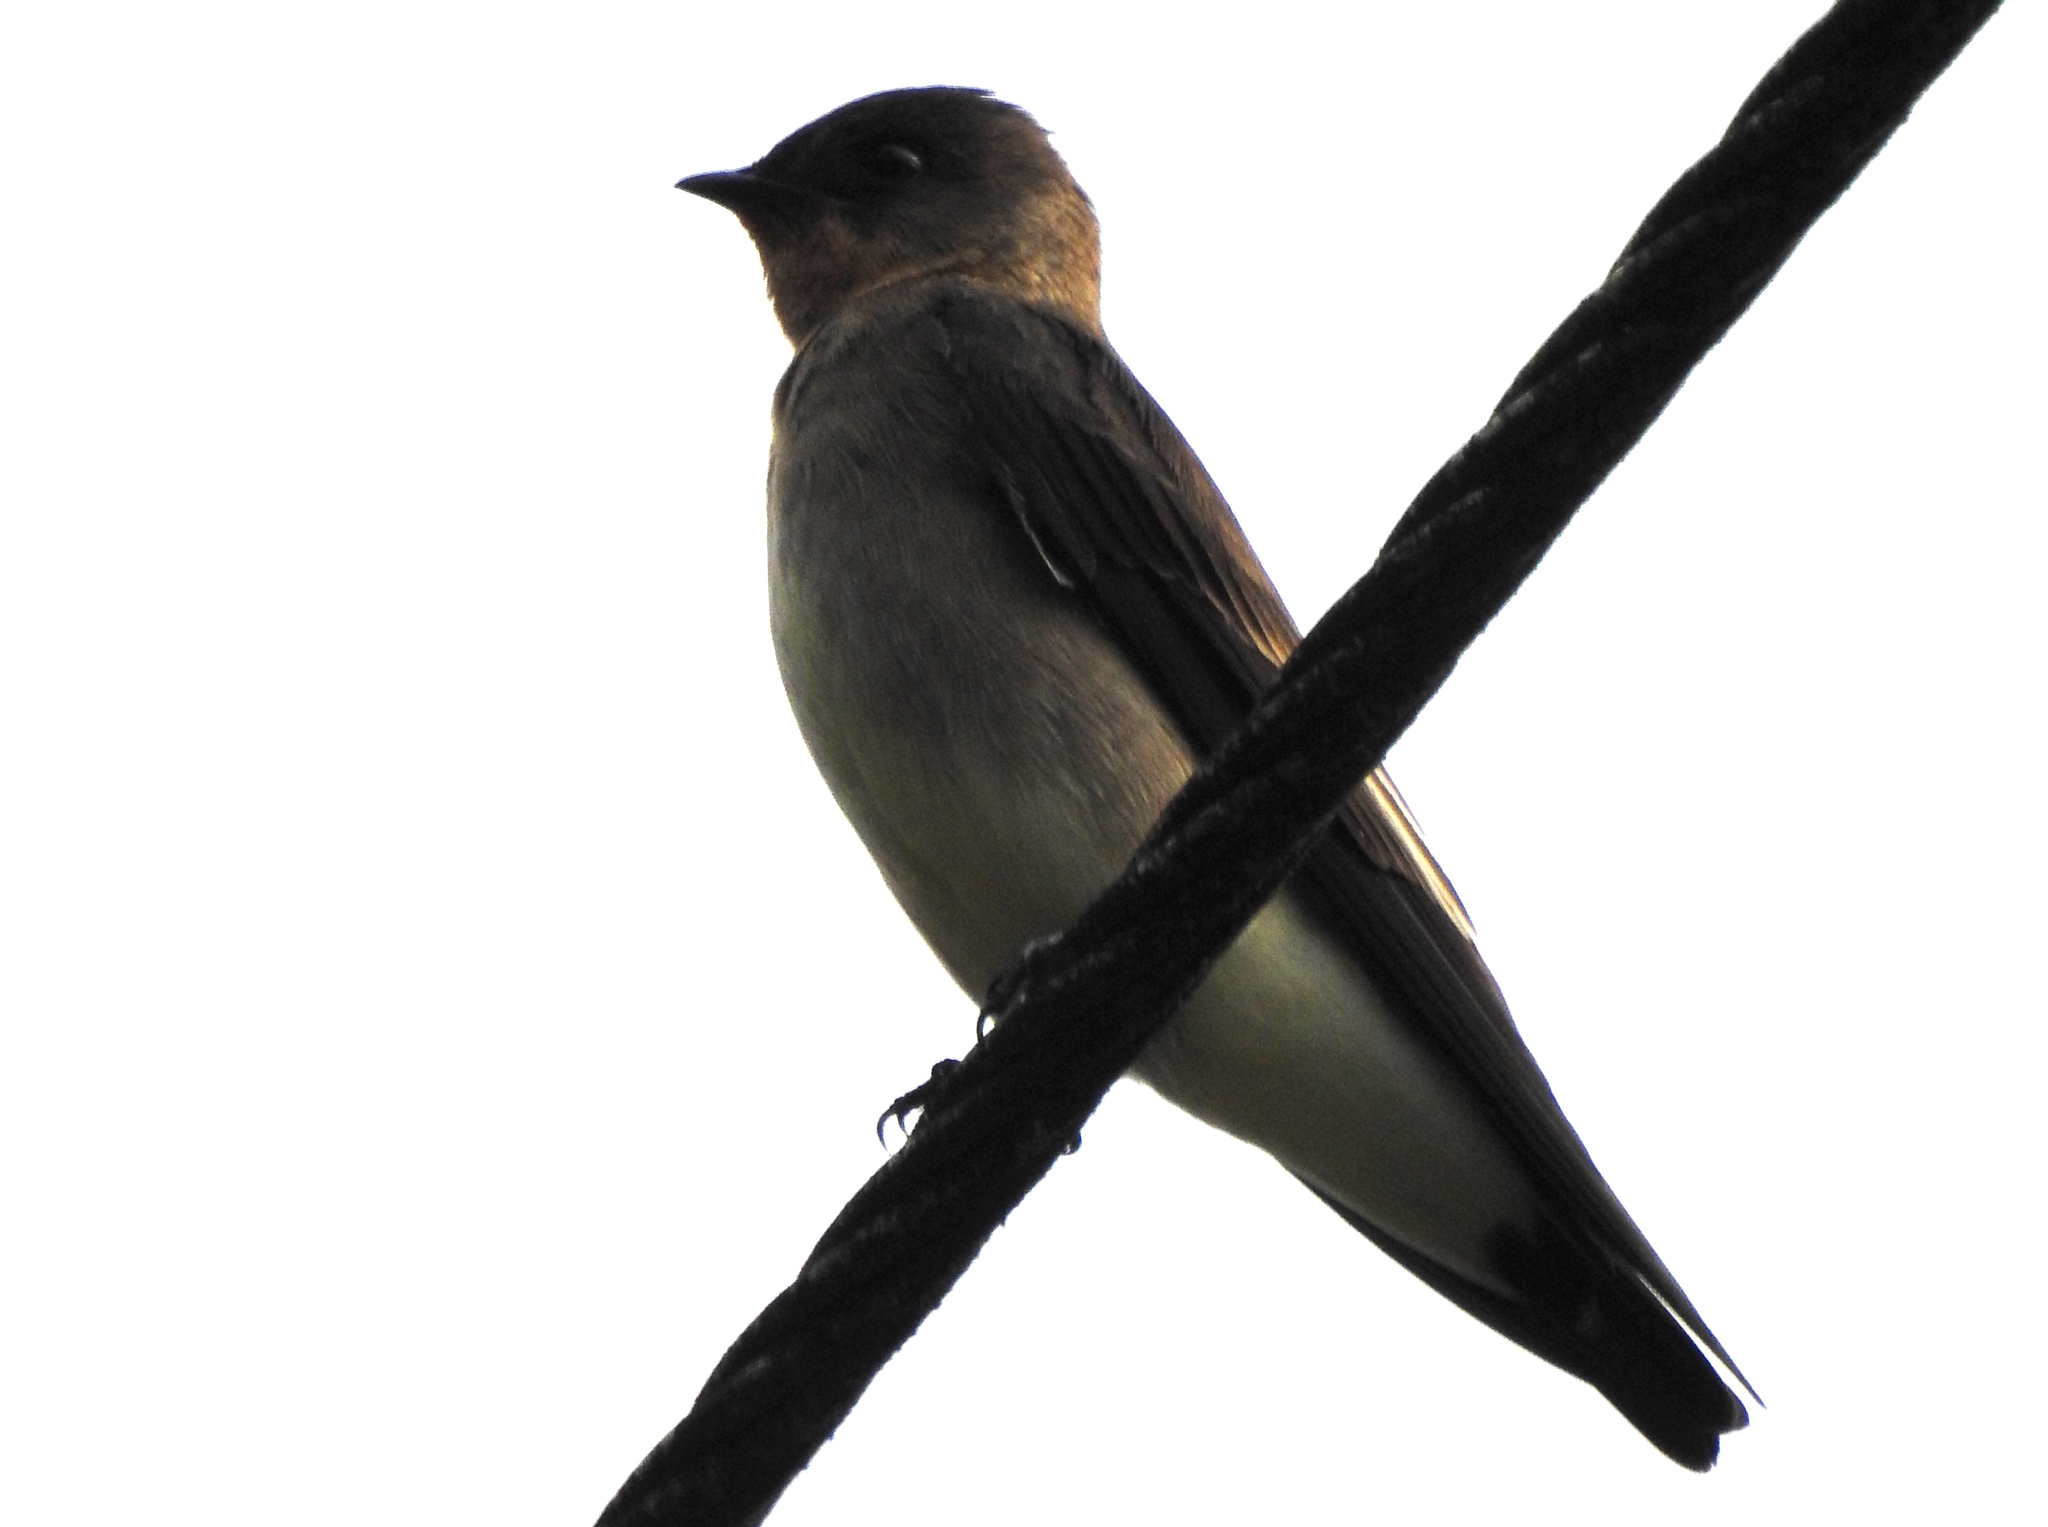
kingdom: Animalia
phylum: Chordata
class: Aves
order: Passeriformes
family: Hirundinidae
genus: Stelgidopteryx
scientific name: Stelgidopteryx ruficollis
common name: Southern rough-winged swallow
